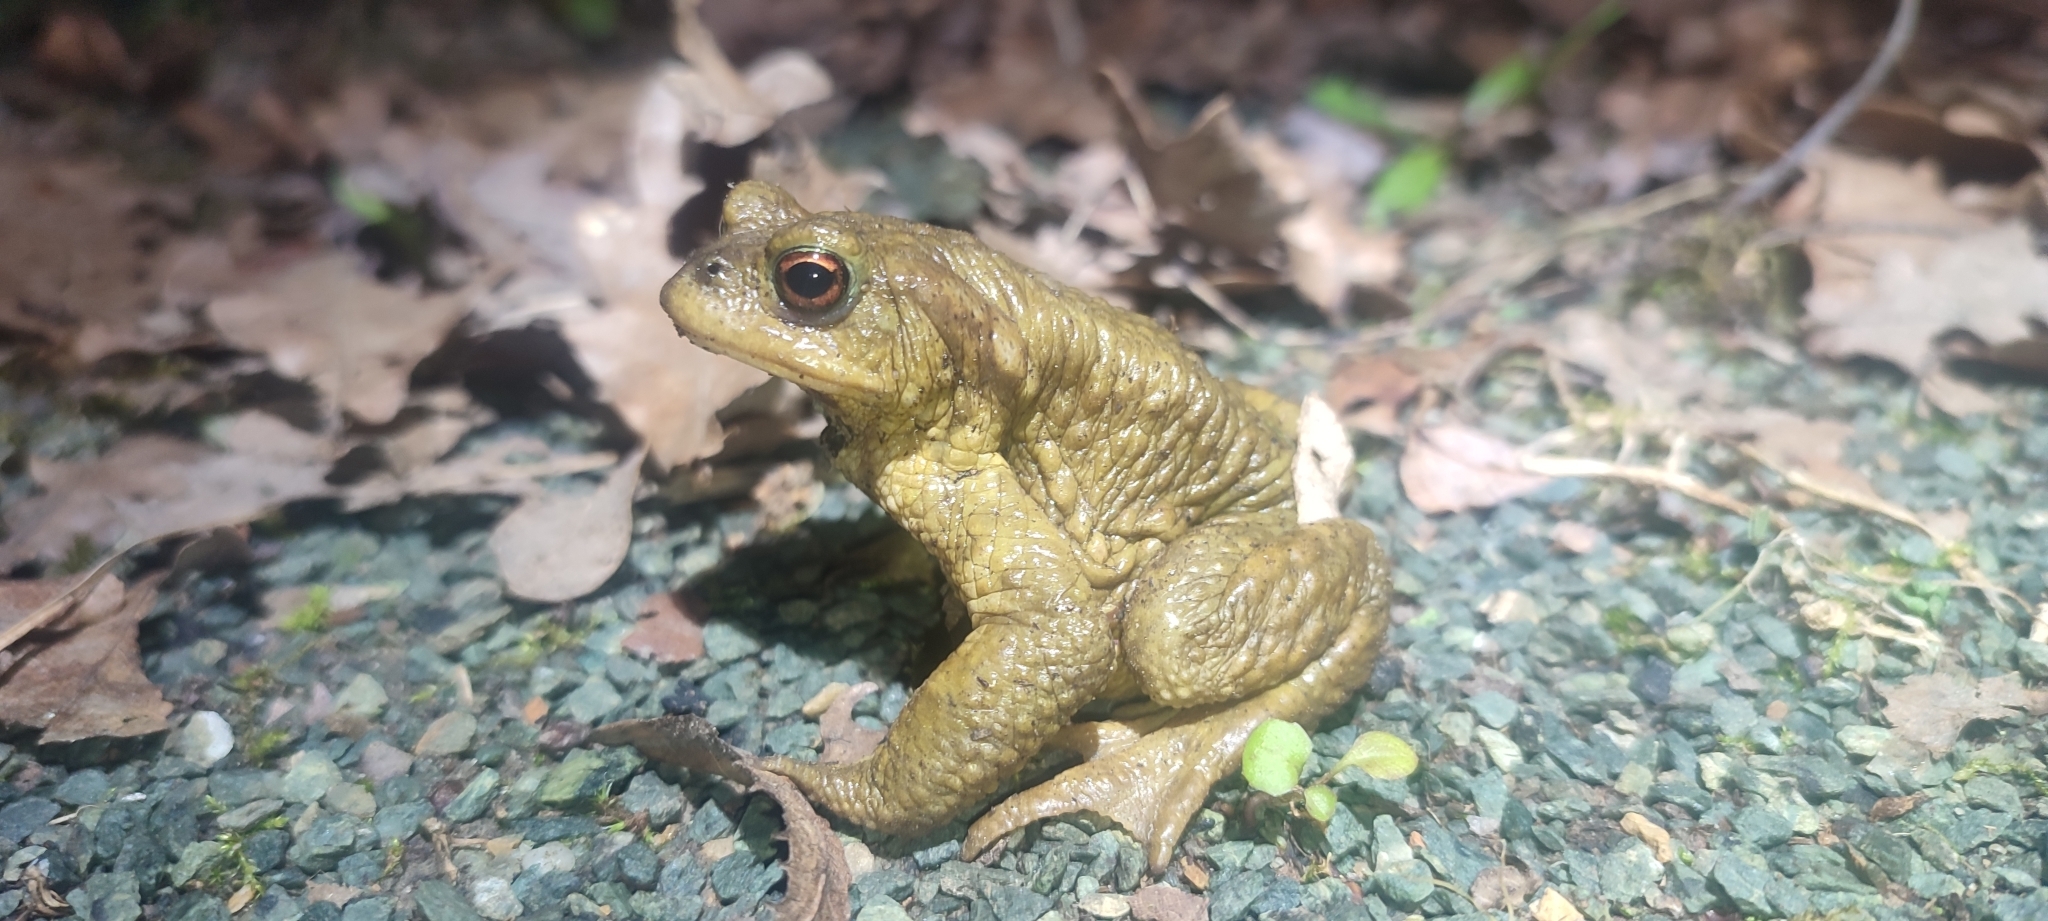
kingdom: Animalia
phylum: Chordata
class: Amphibia
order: Anura
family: Bufonidae
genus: Bufo
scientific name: Bufo spinosus
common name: Western common toad
